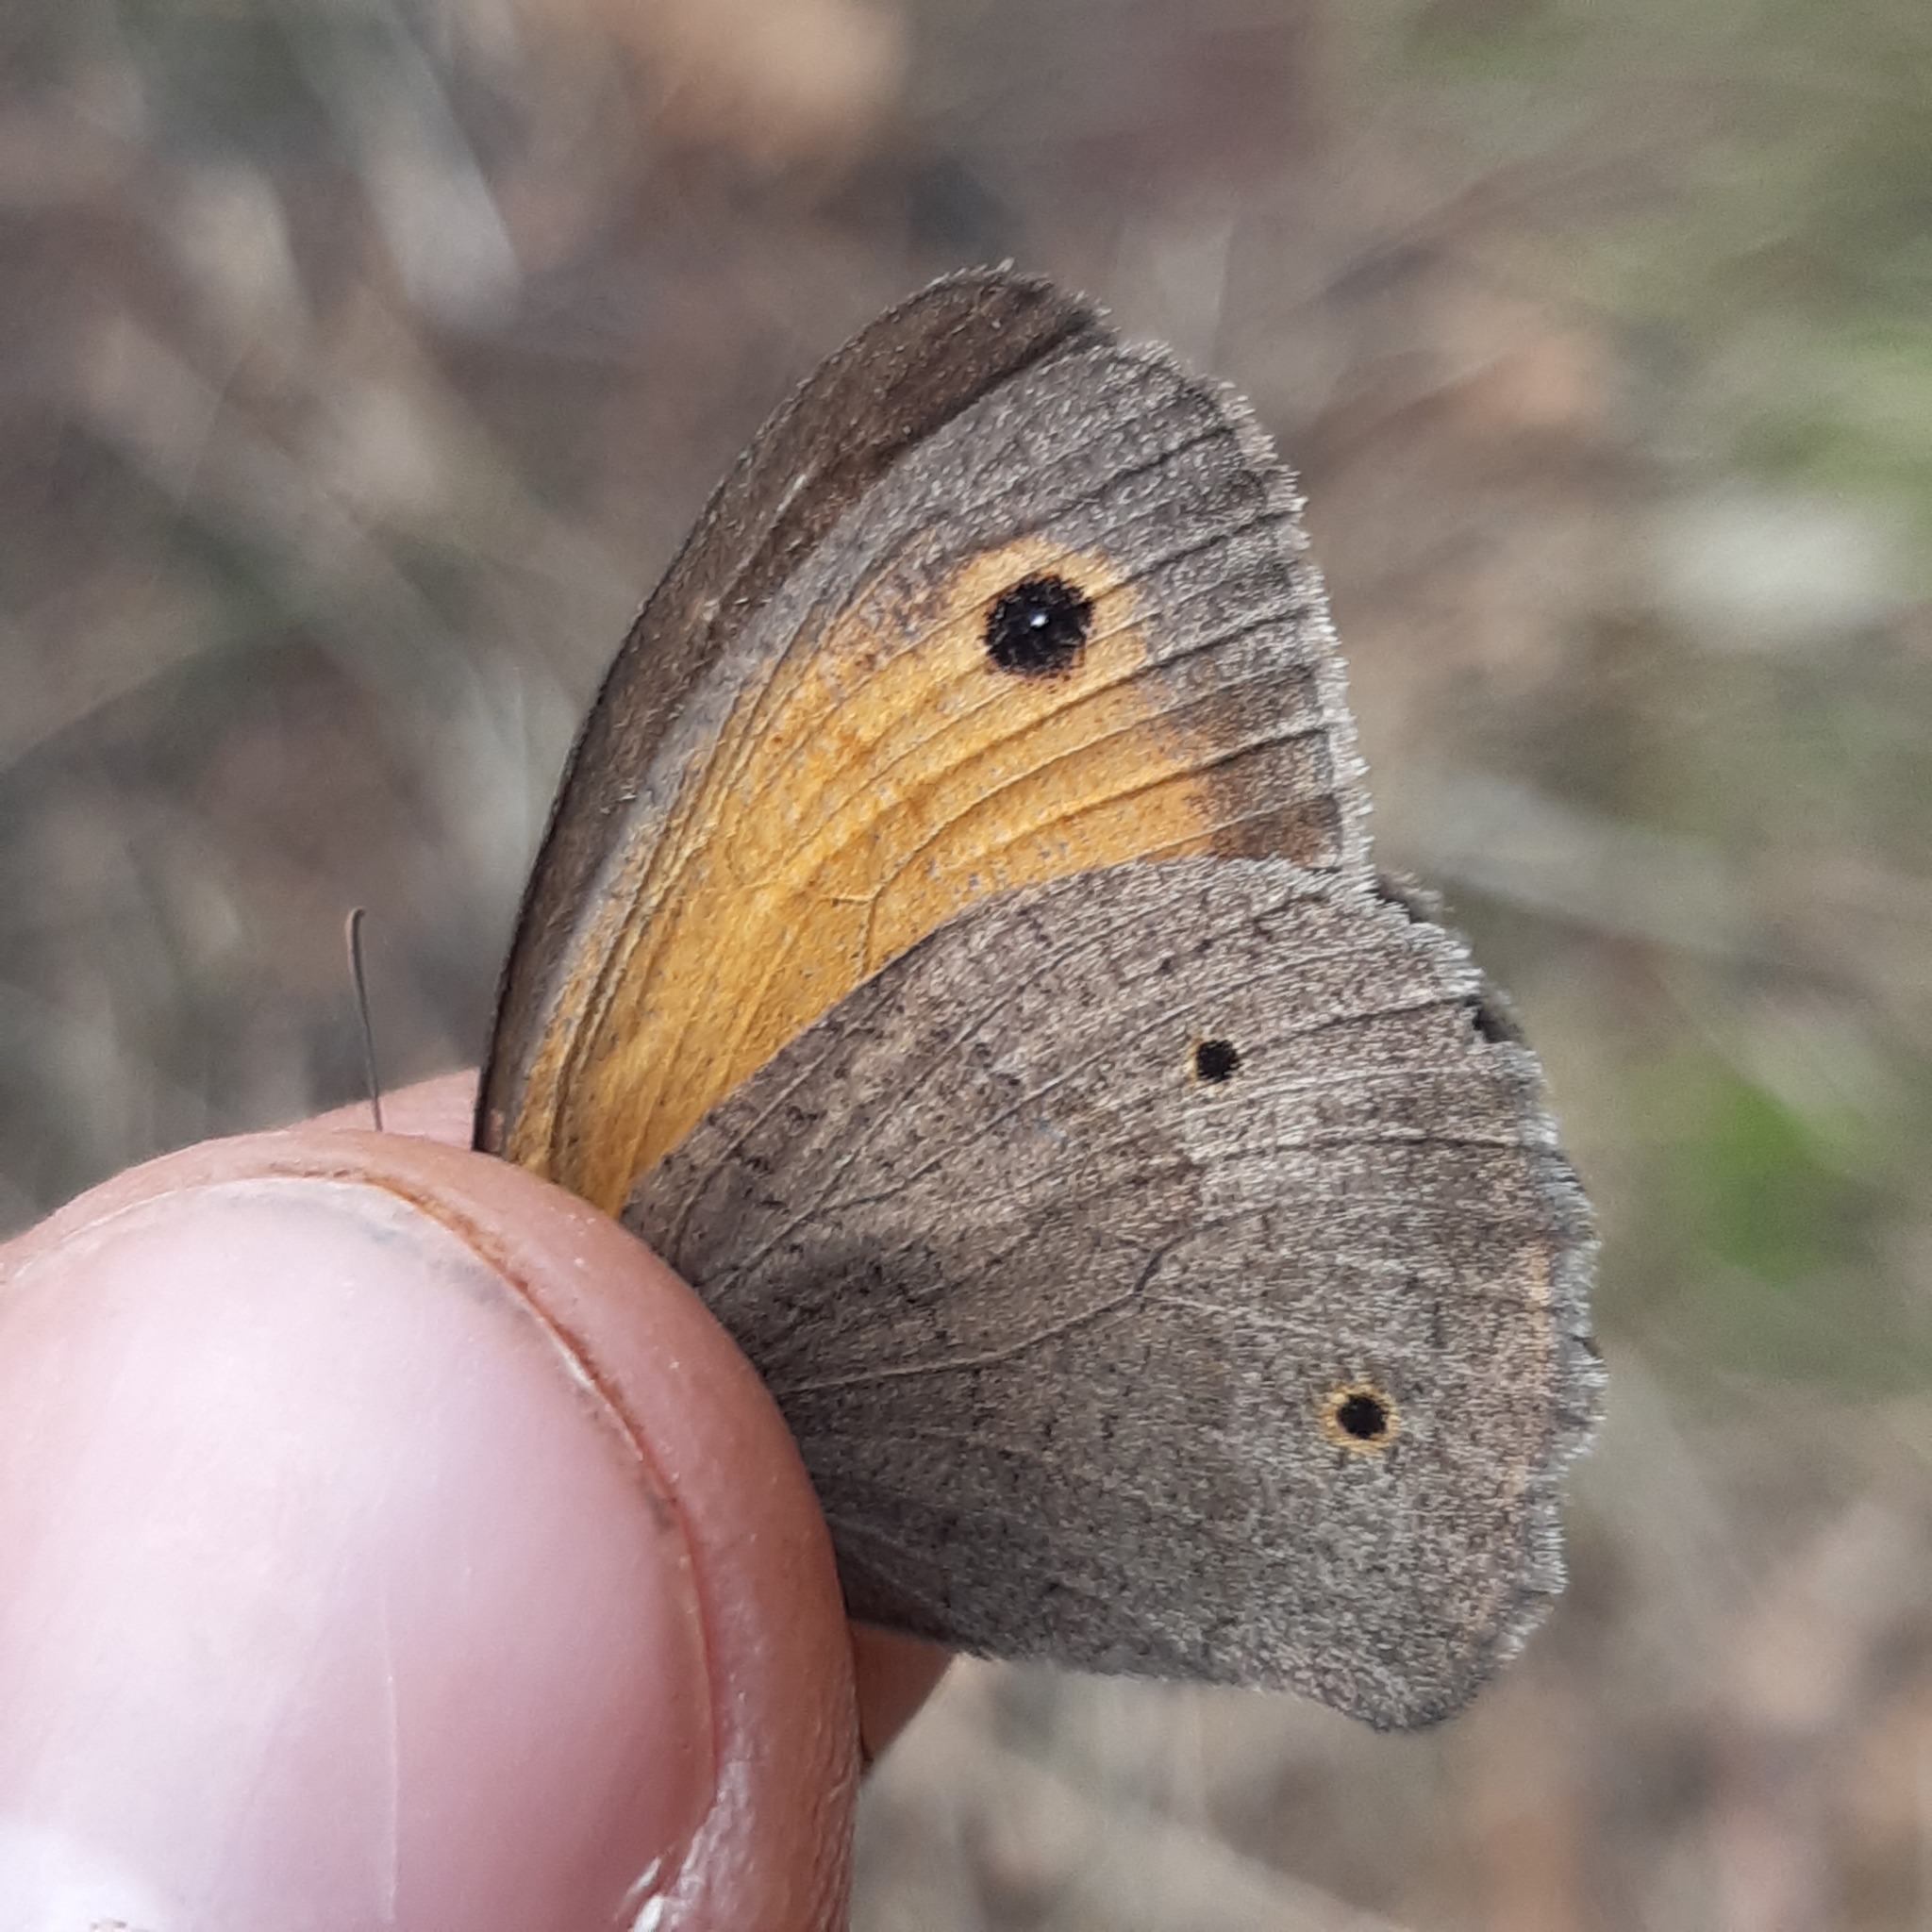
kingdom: Animalia
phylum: Arthropoda
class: Insecta
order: Lepidoptera
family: Nymphalidae
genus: Maniola
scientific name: Maniola jurtina
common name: Meadow brown
